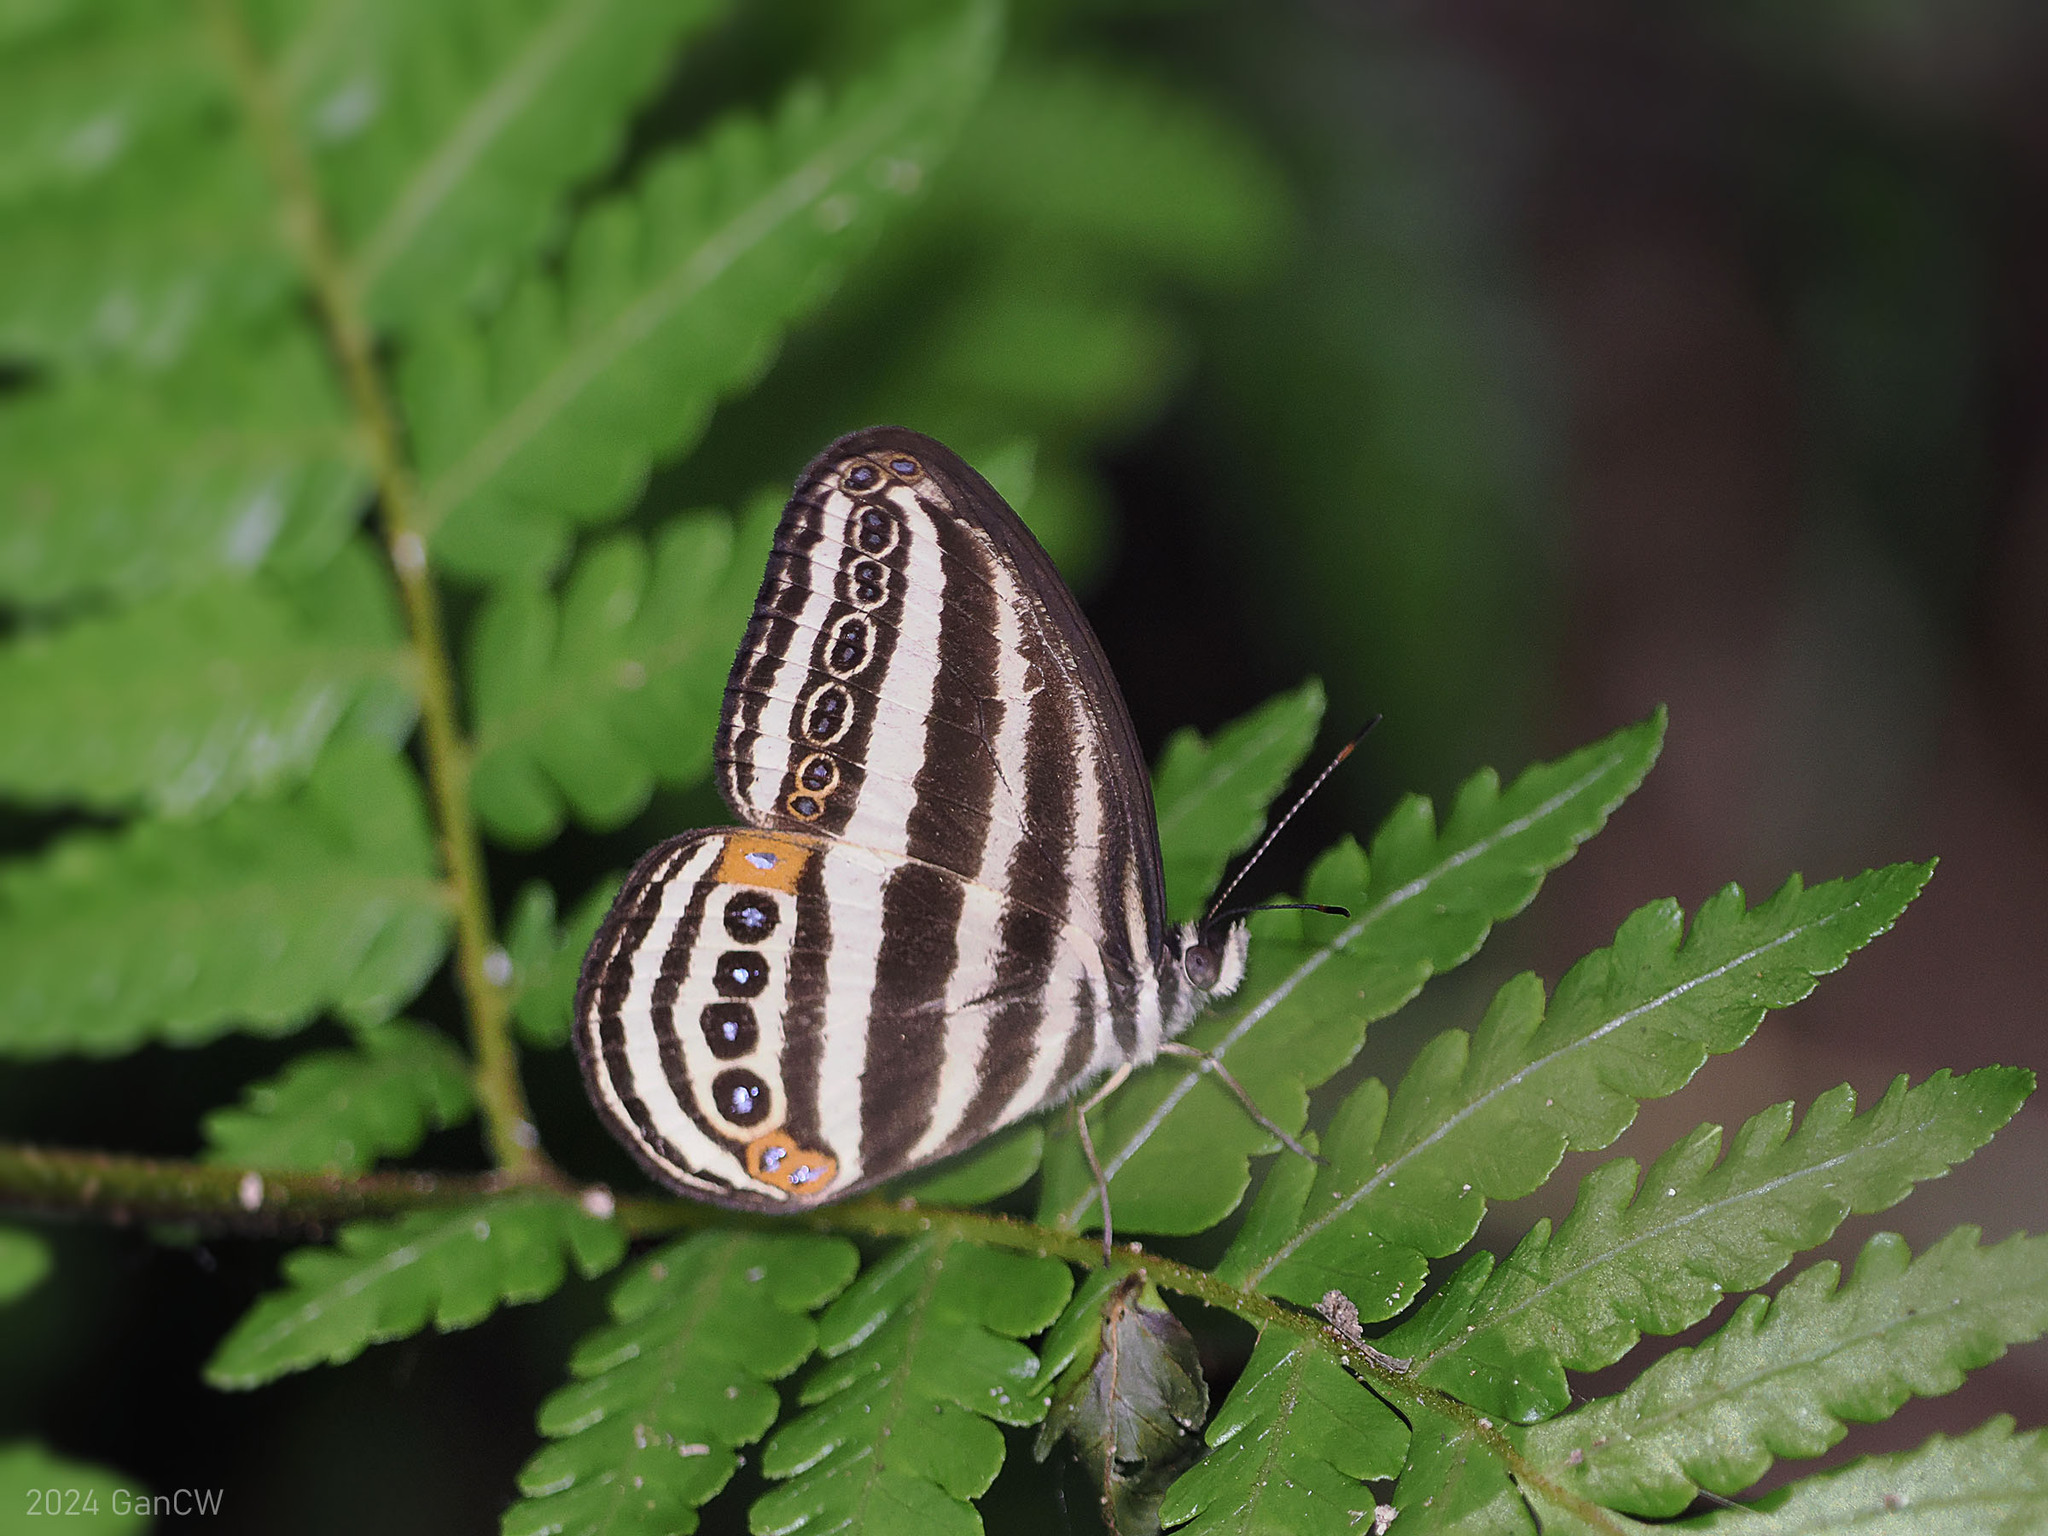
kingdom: Animalia
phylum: Arthropoda
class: Insecta
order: Lepidoptera
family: Nymphalidae
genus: Ragadia
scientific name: Ragadia luzonia
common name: Luzon striped ringlet
